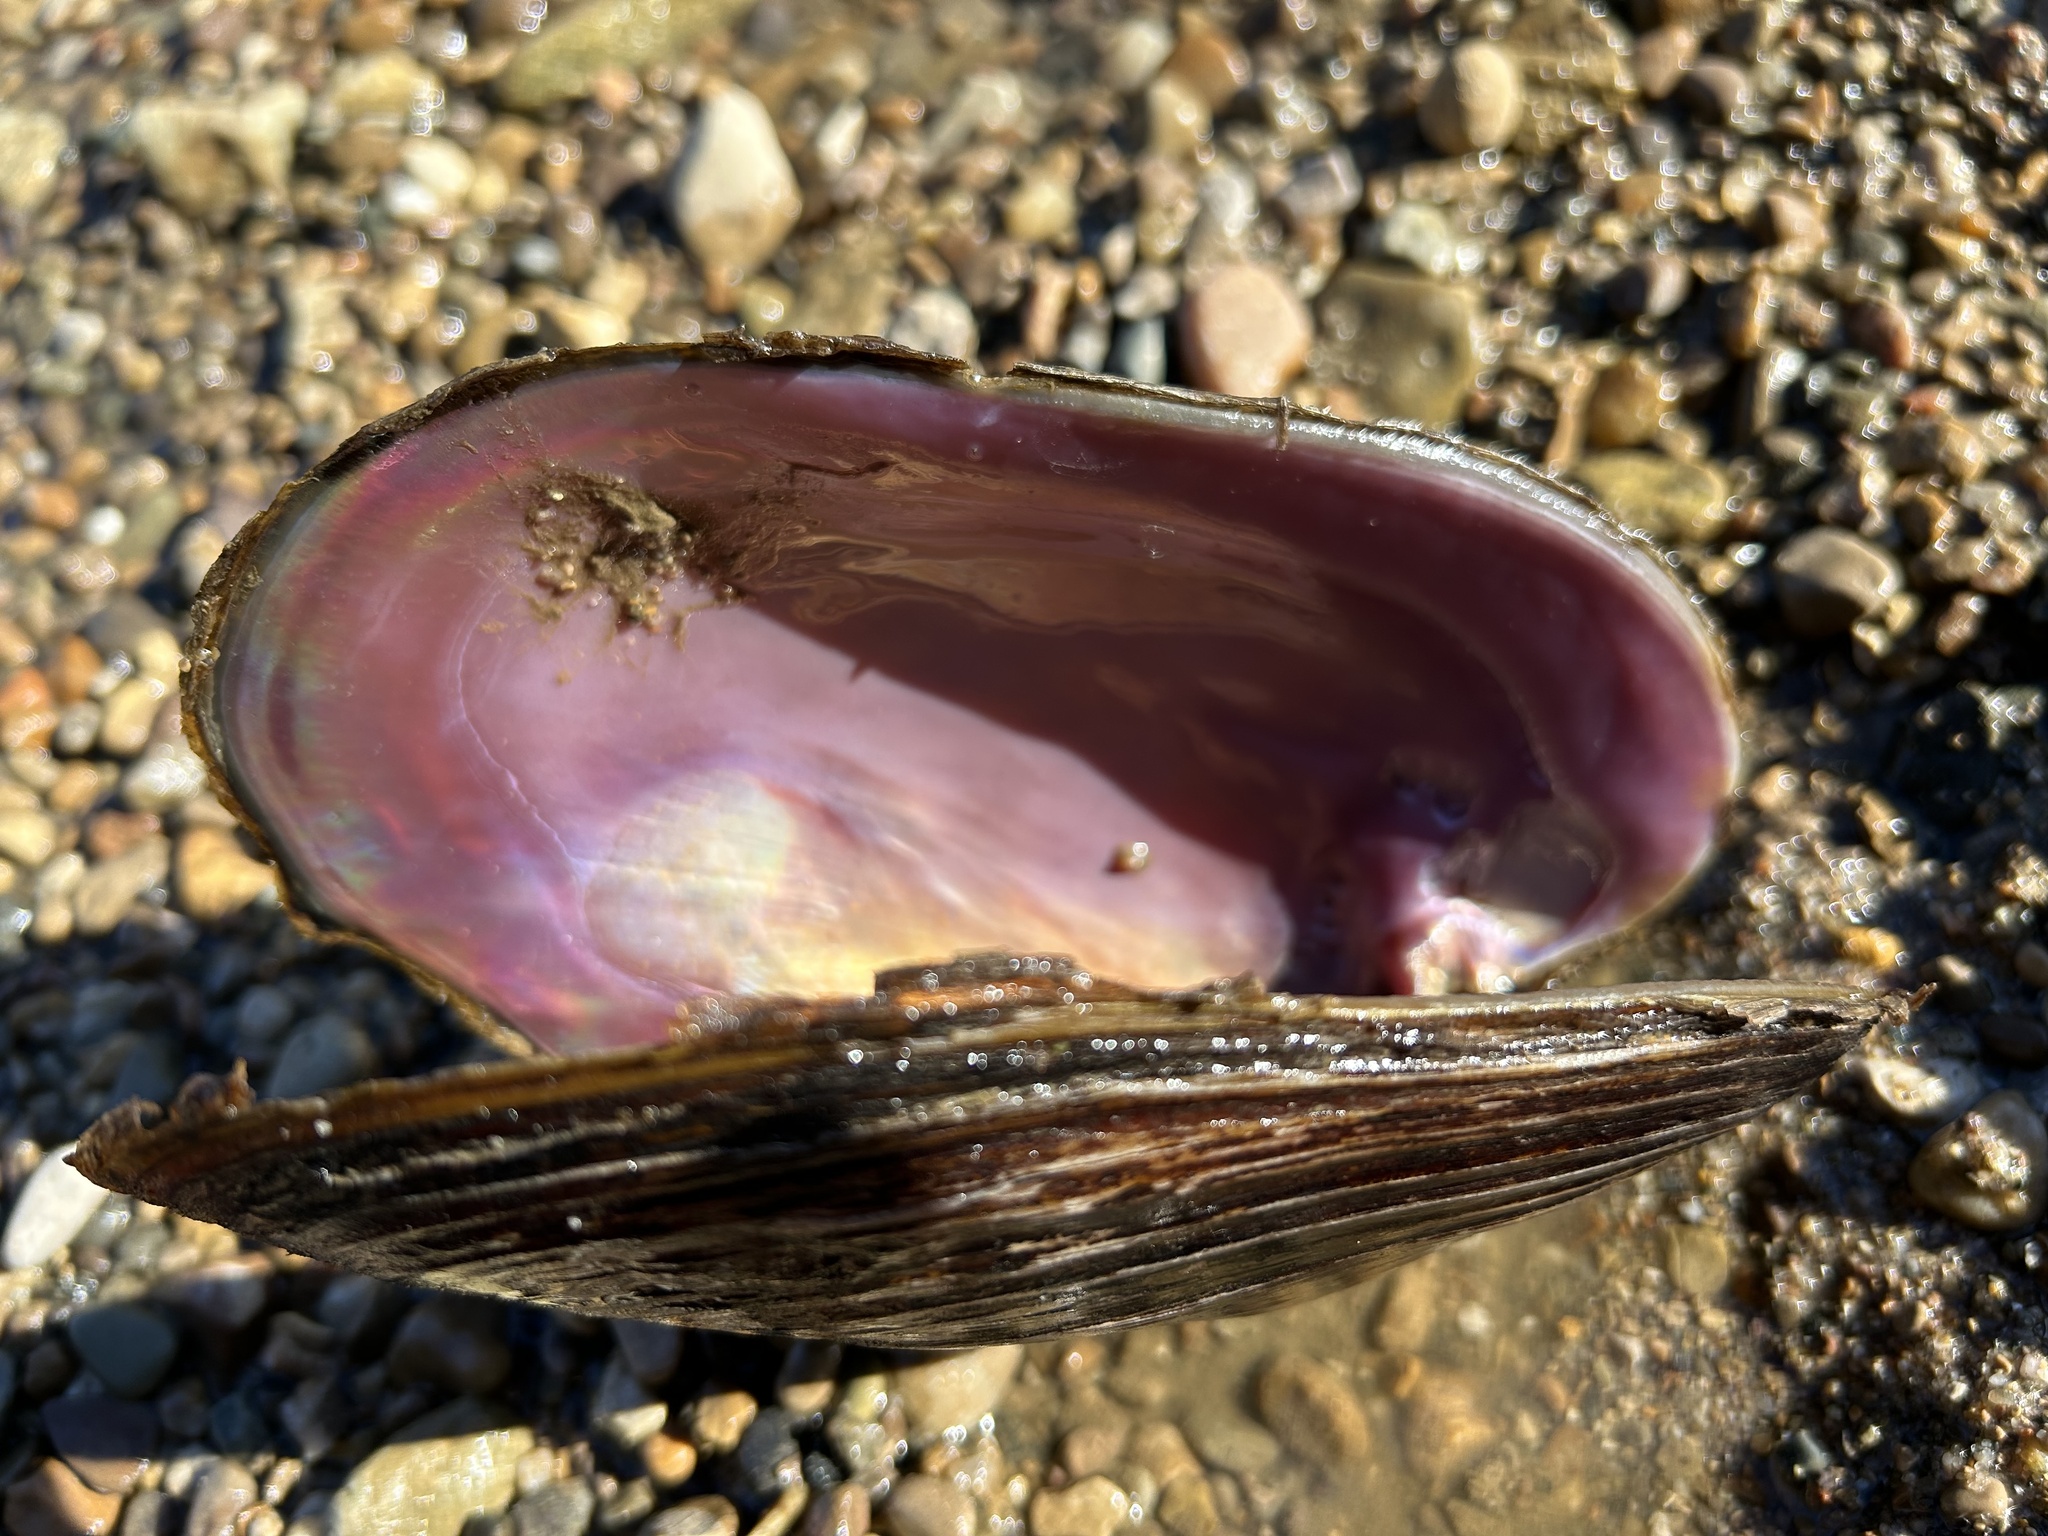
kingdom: Animalia
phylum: Mollusca
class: Bivalvia
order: Unionida
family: Unionidae
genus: Potamilus
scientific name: Potamilus alatus
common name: Pink heelsplitter
